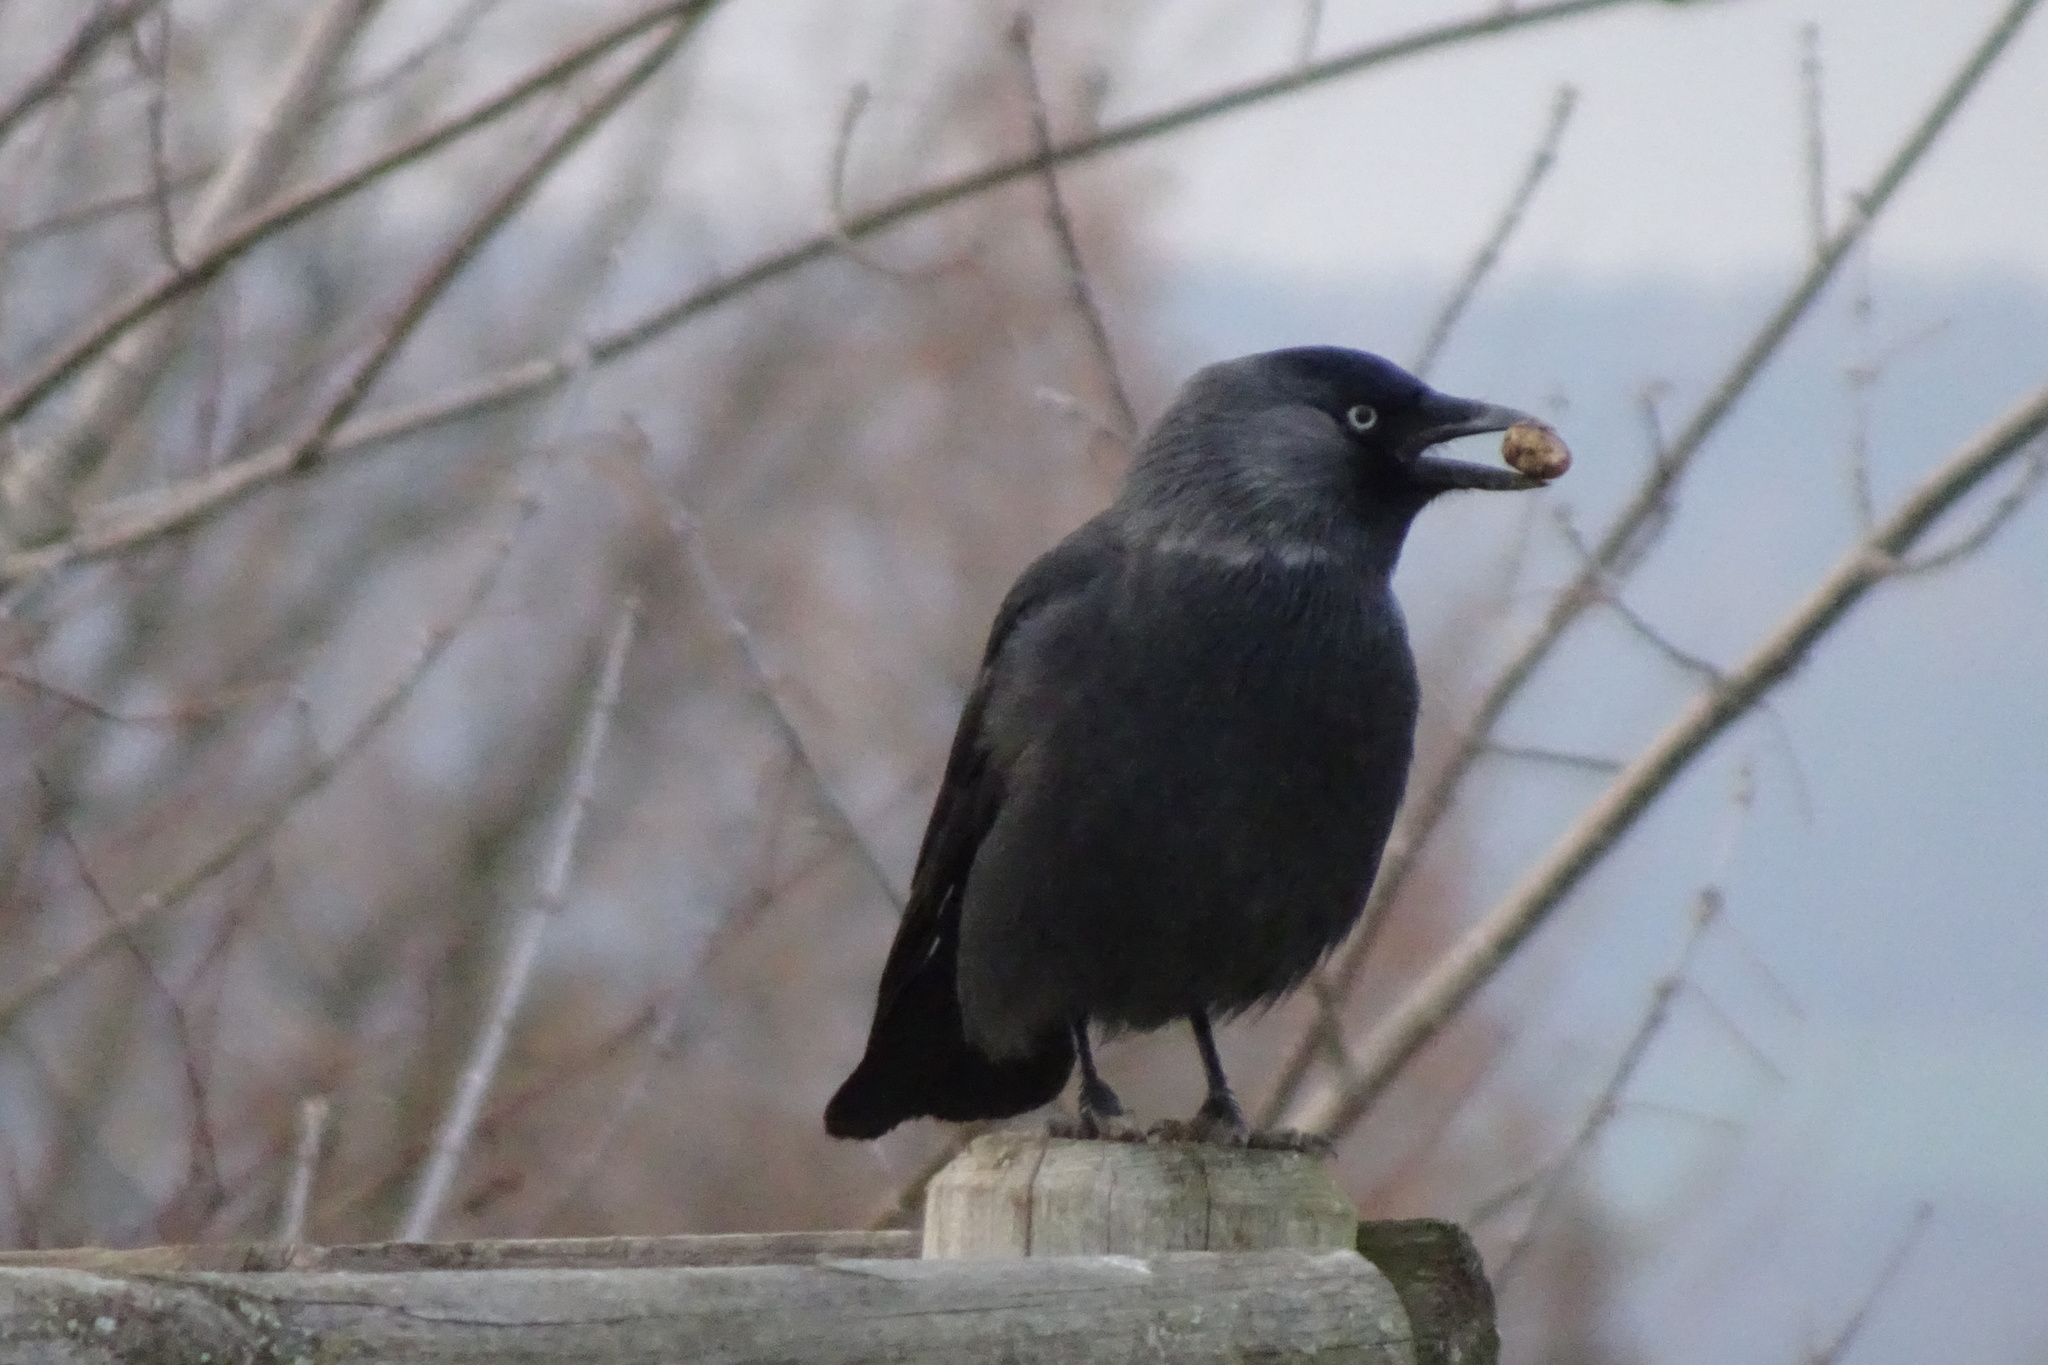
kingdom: Animalia
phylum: Chordata
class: Aves
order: Passeriformes
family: Corvidae
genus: Coloeus
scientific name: Coloeus monedula
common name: Western jackdaw
